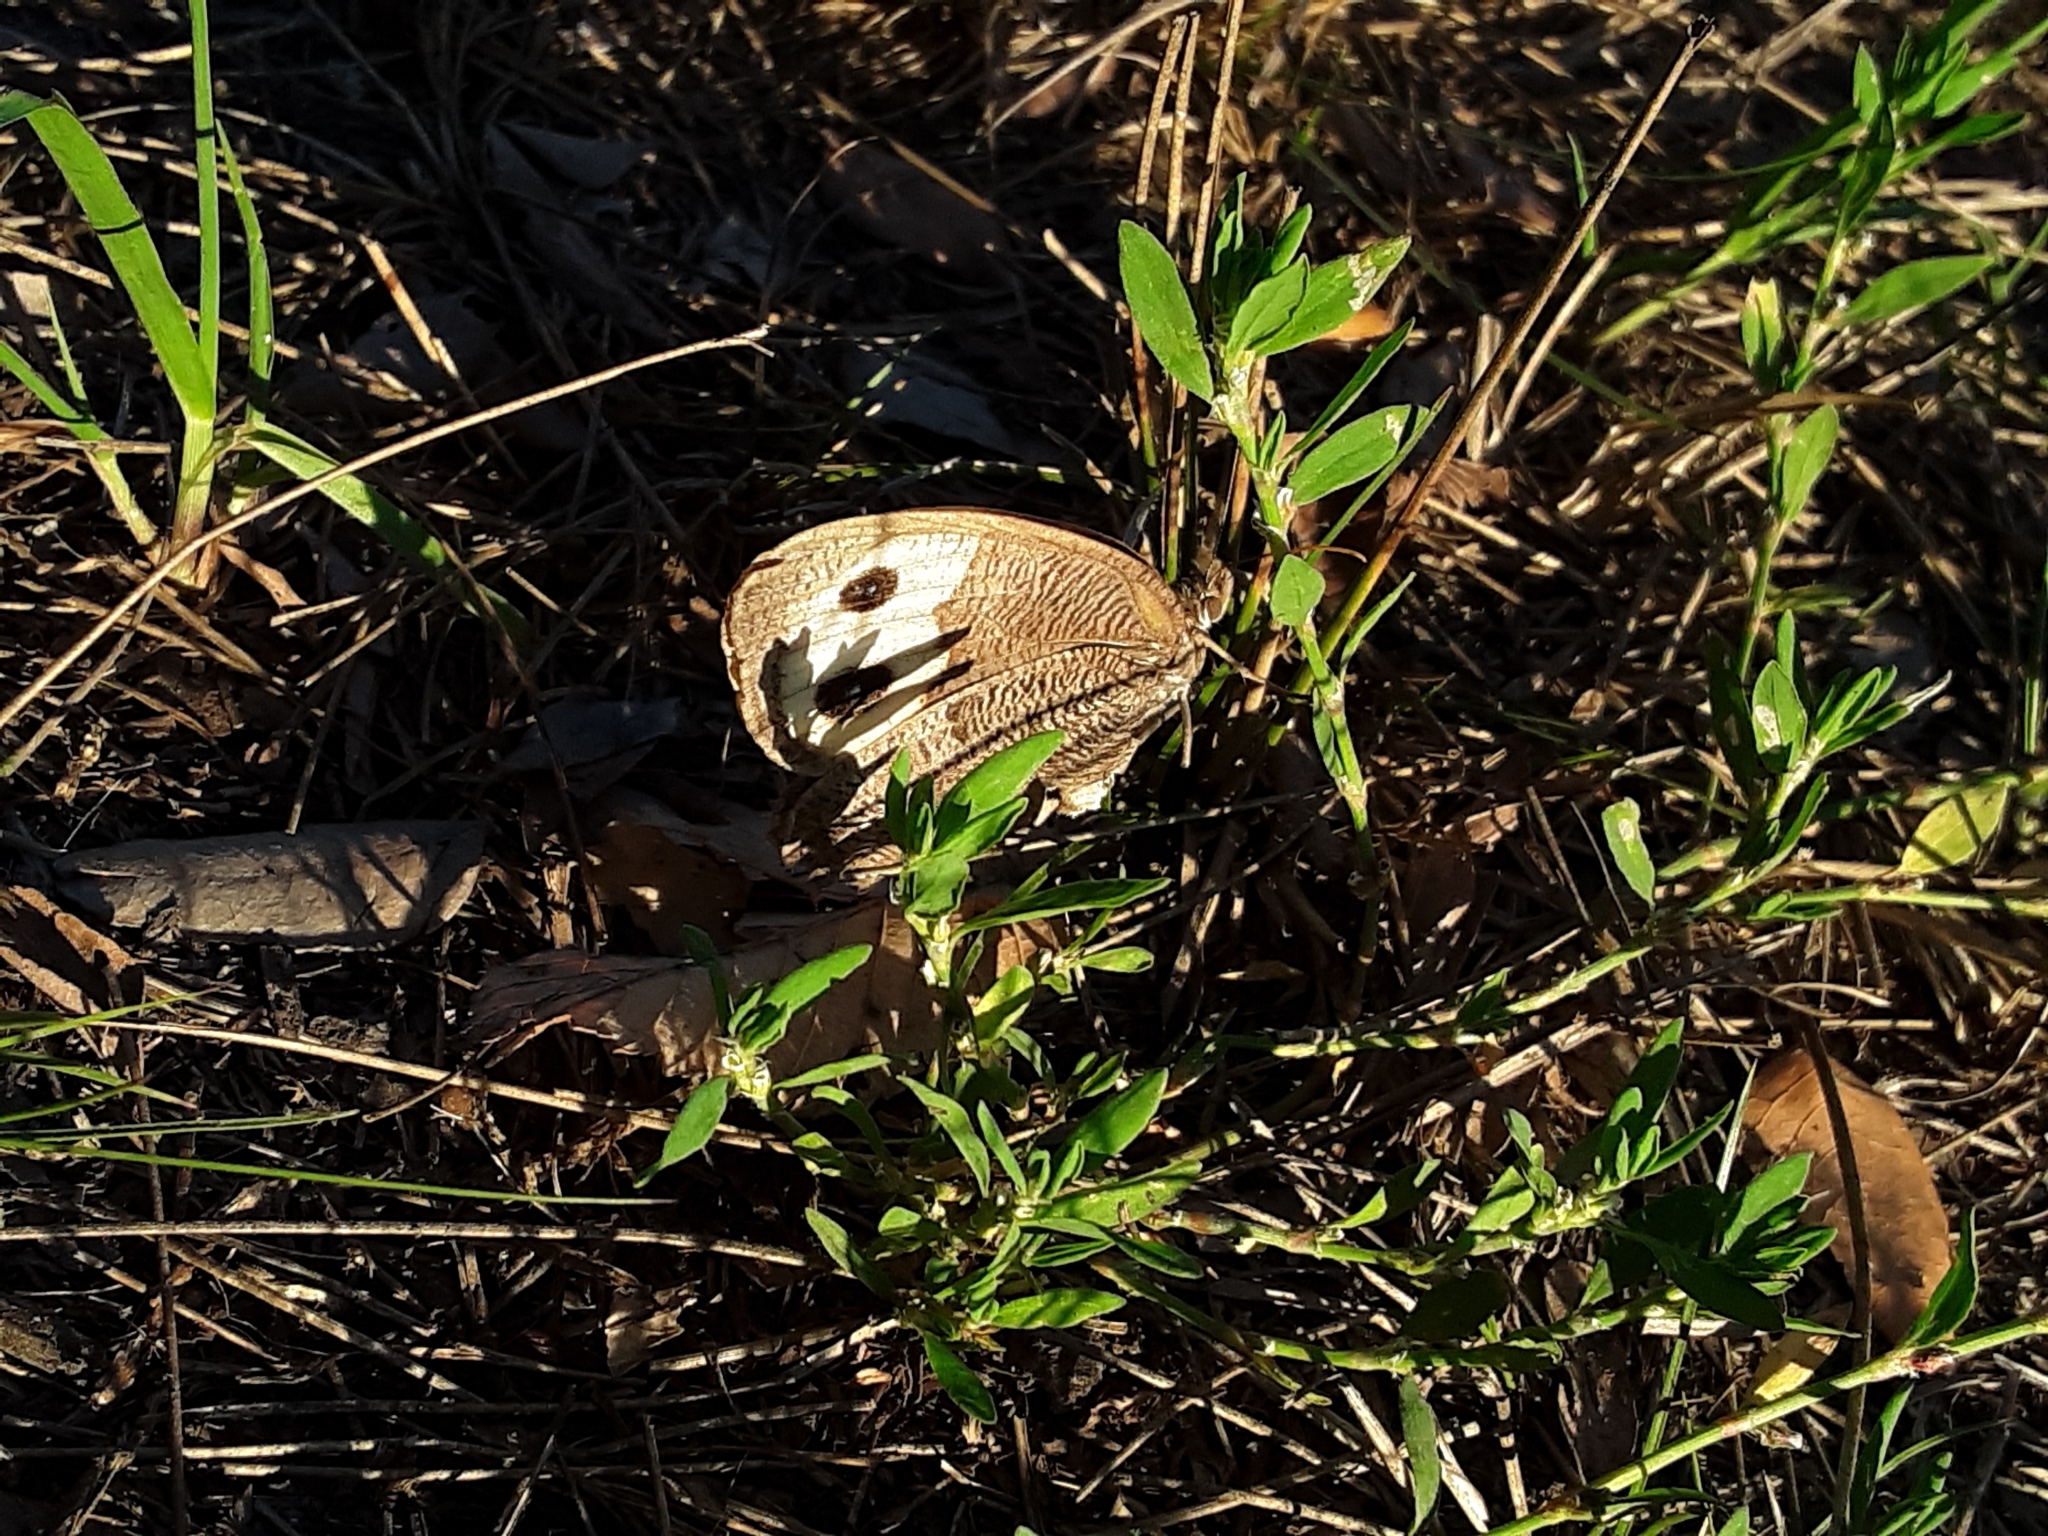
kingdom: Animalia
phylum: Arthropoda
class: Insecta
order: Lepidoptera
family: Nymphalidae
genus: Cercyonis
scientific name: Cercyonis pegala
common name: Common wood-nymph
